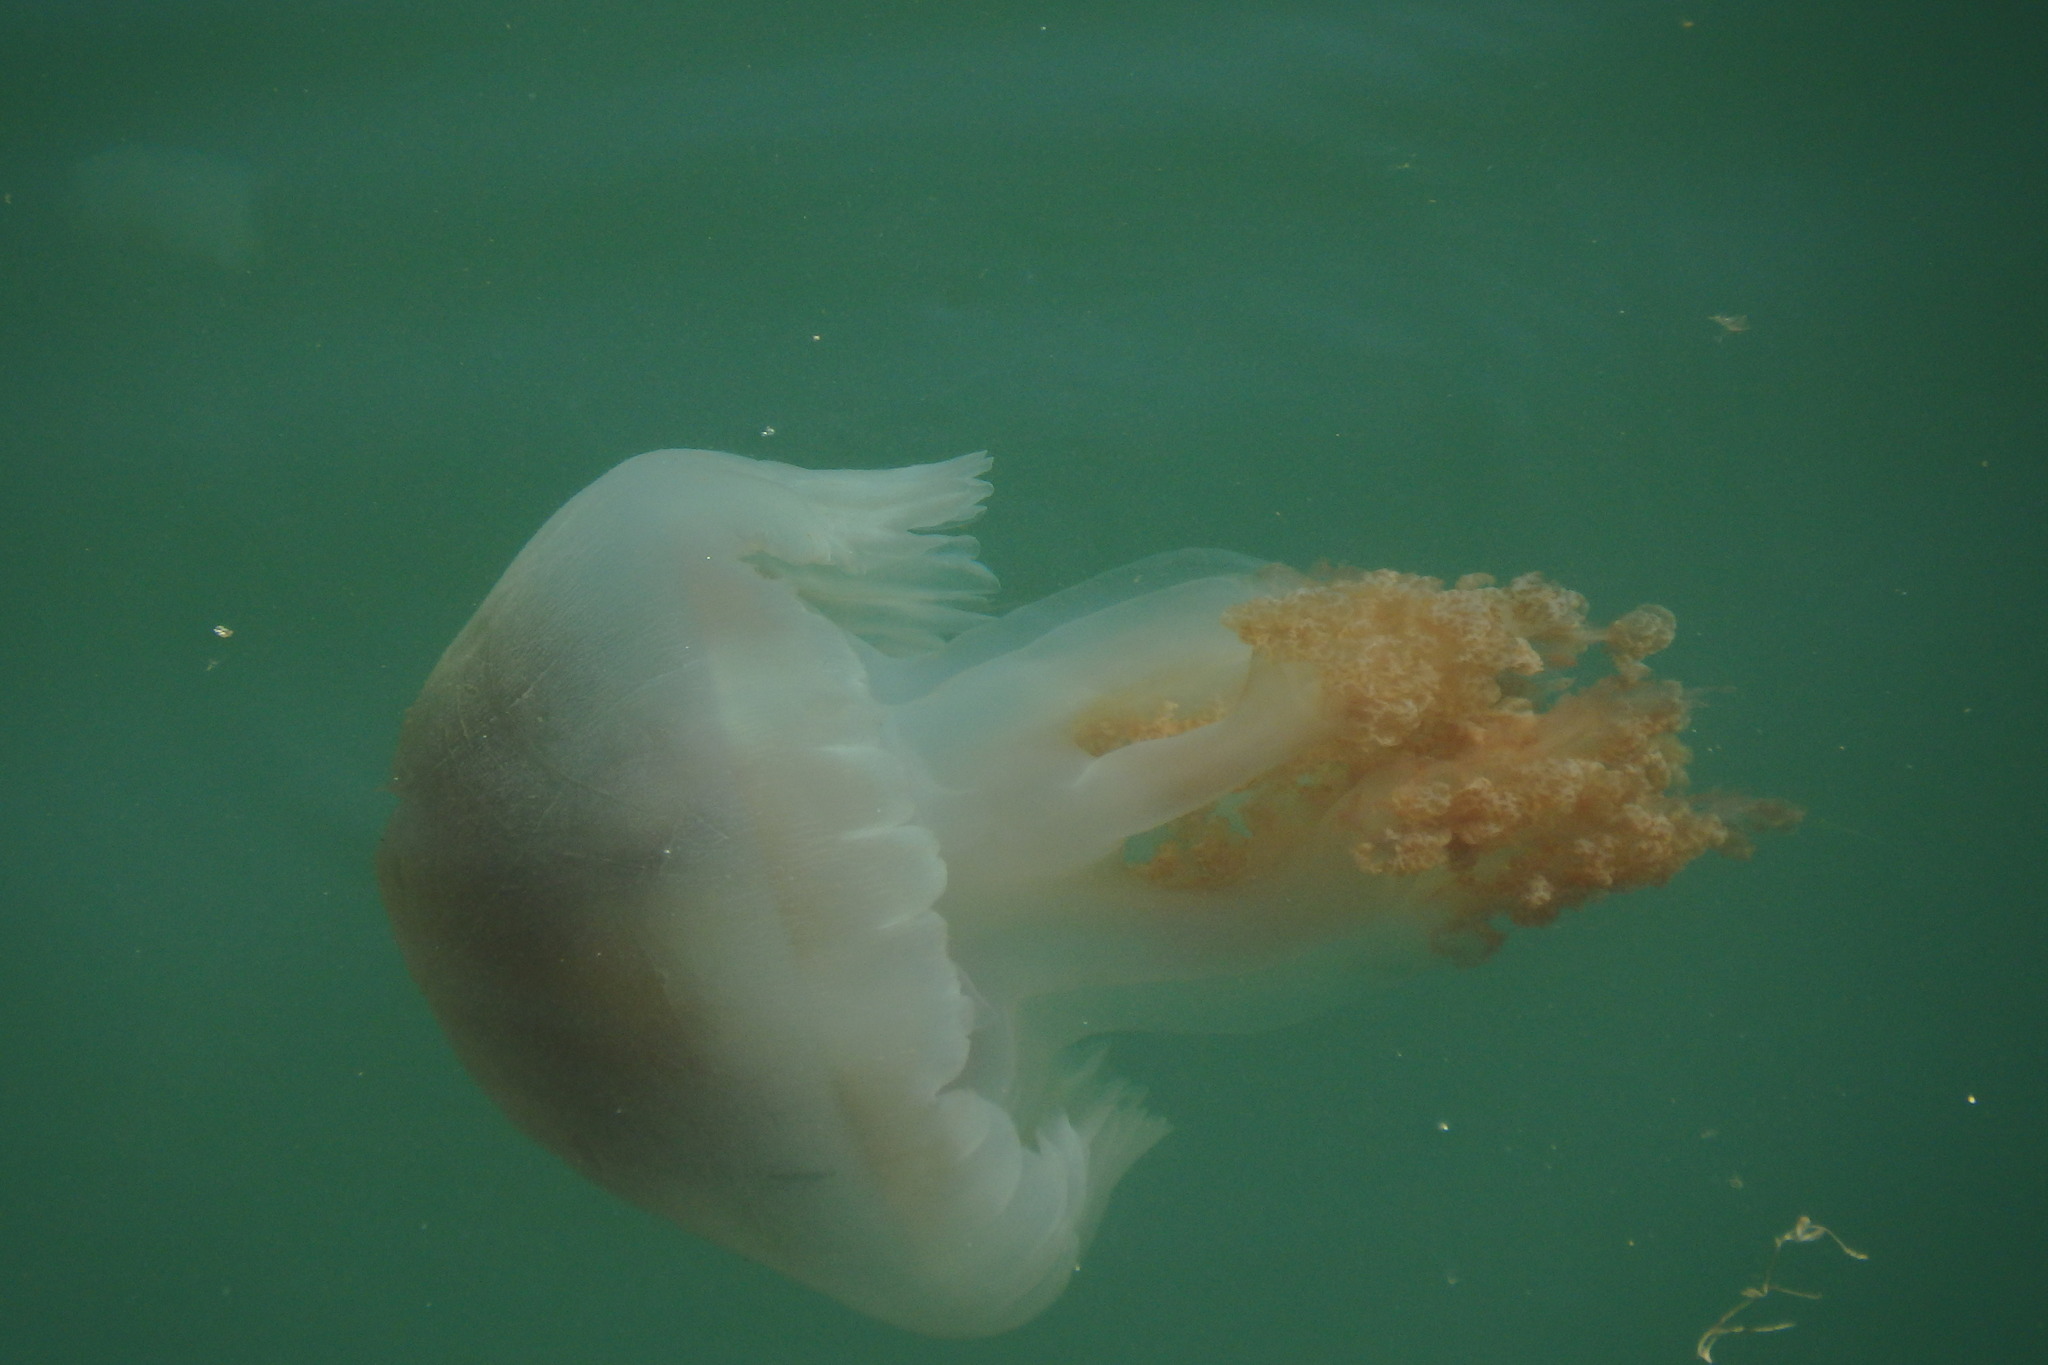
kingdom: Animalia
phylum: Cnidaria
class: Scyphozoa
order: Rhizostomeae
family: Catostylidae
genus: Catostylus
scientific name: Catostylus tagi
